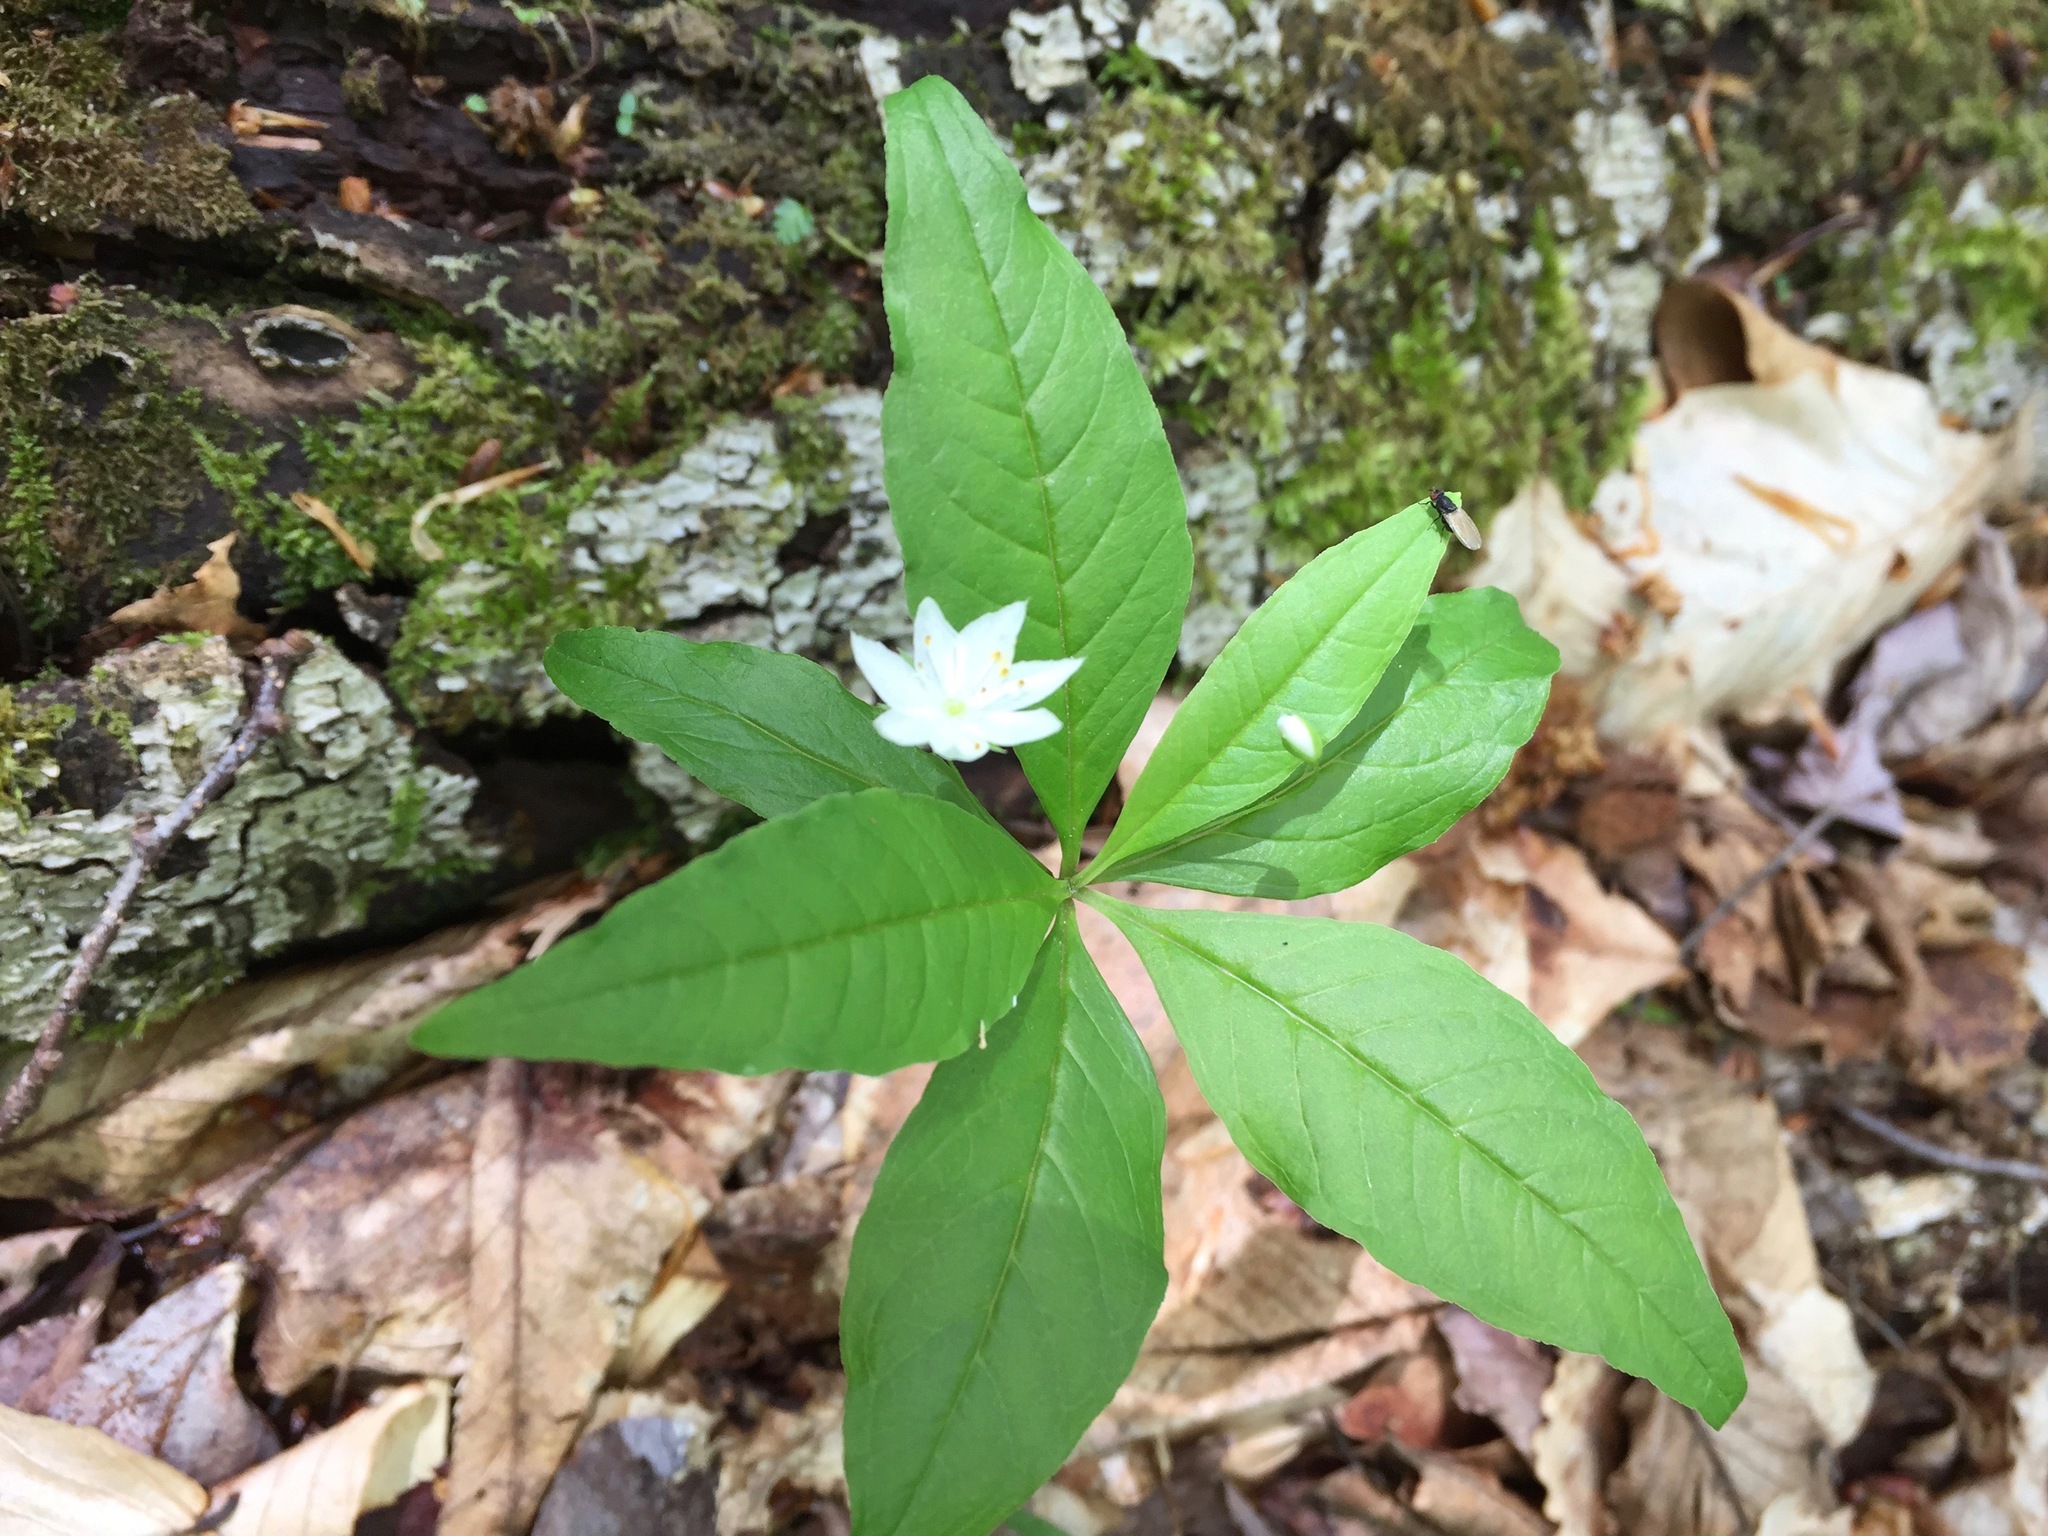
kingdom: Plantae
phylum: Tracheophyta
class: Magnoliopsida
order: Ericales
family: Primulaceae
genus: Lysimachia
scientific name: Lysimachia borealis
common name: American starflower
